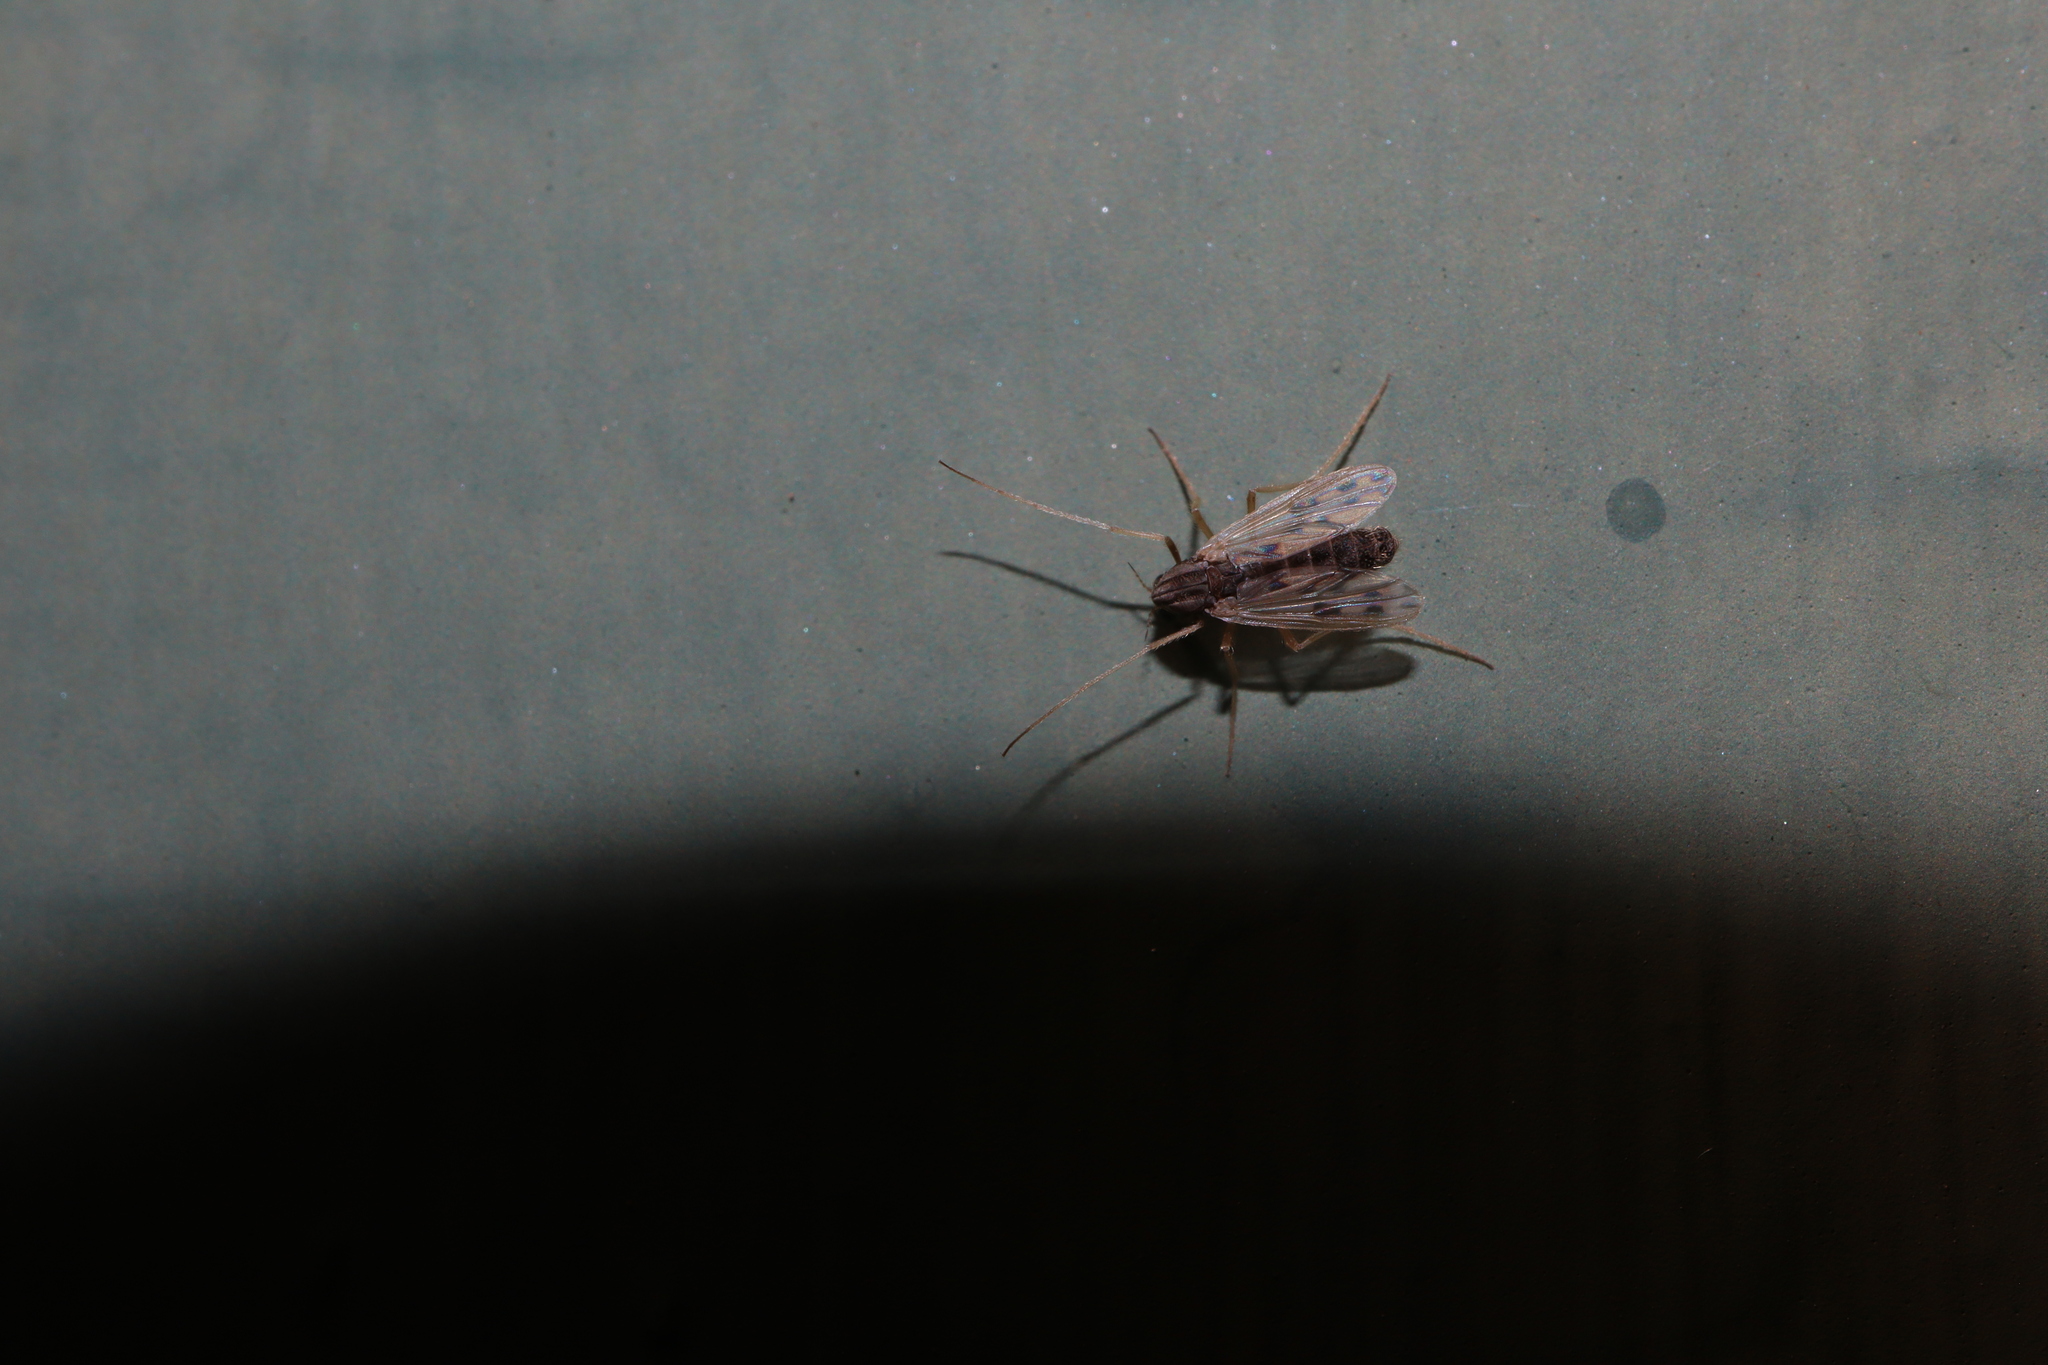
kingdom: Animalia
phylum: Arthropoda
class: Insecta
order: Diptera
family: Chironomidae
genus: Polypedilum
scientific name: Polypedilum nubifer
